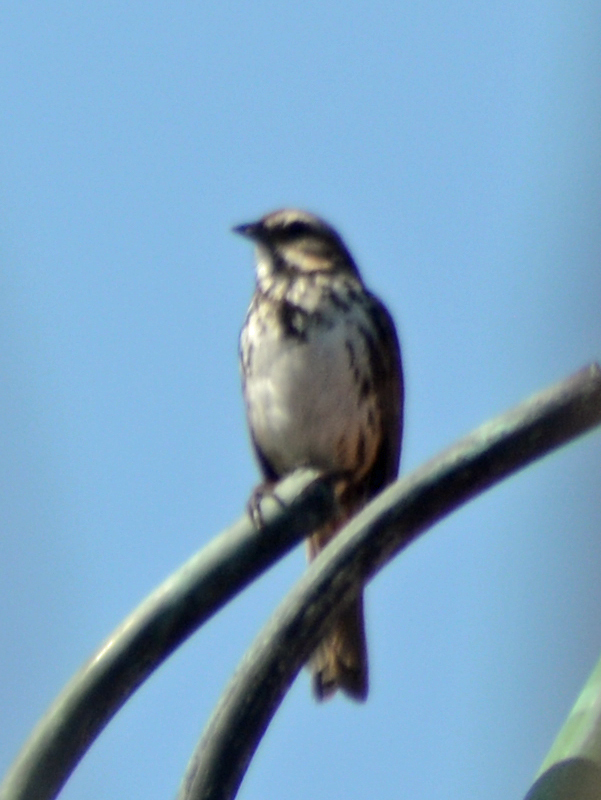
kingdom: Animalia
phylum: Chordata
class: Aves
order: Passeriformes
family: Passerellidae
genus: Melospiza
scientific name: Melospiza melodia
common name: Song sparrow
